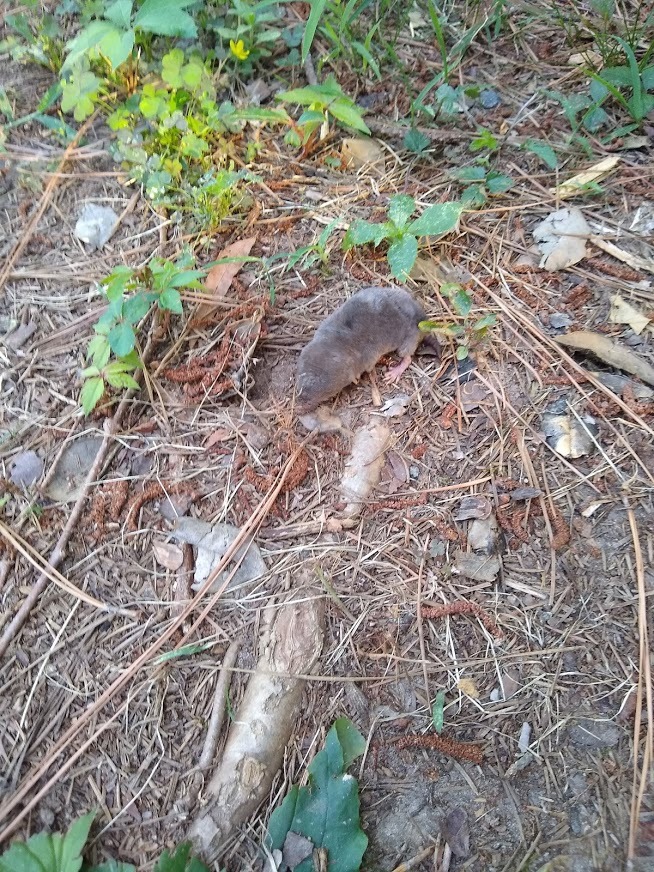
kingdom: Animalia
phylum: Chordata
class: Mammalia
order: Soricomorpha
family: Soricidae
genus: Blarina
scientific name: Blarina brevicauda
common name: Northern short-tailed shrew
